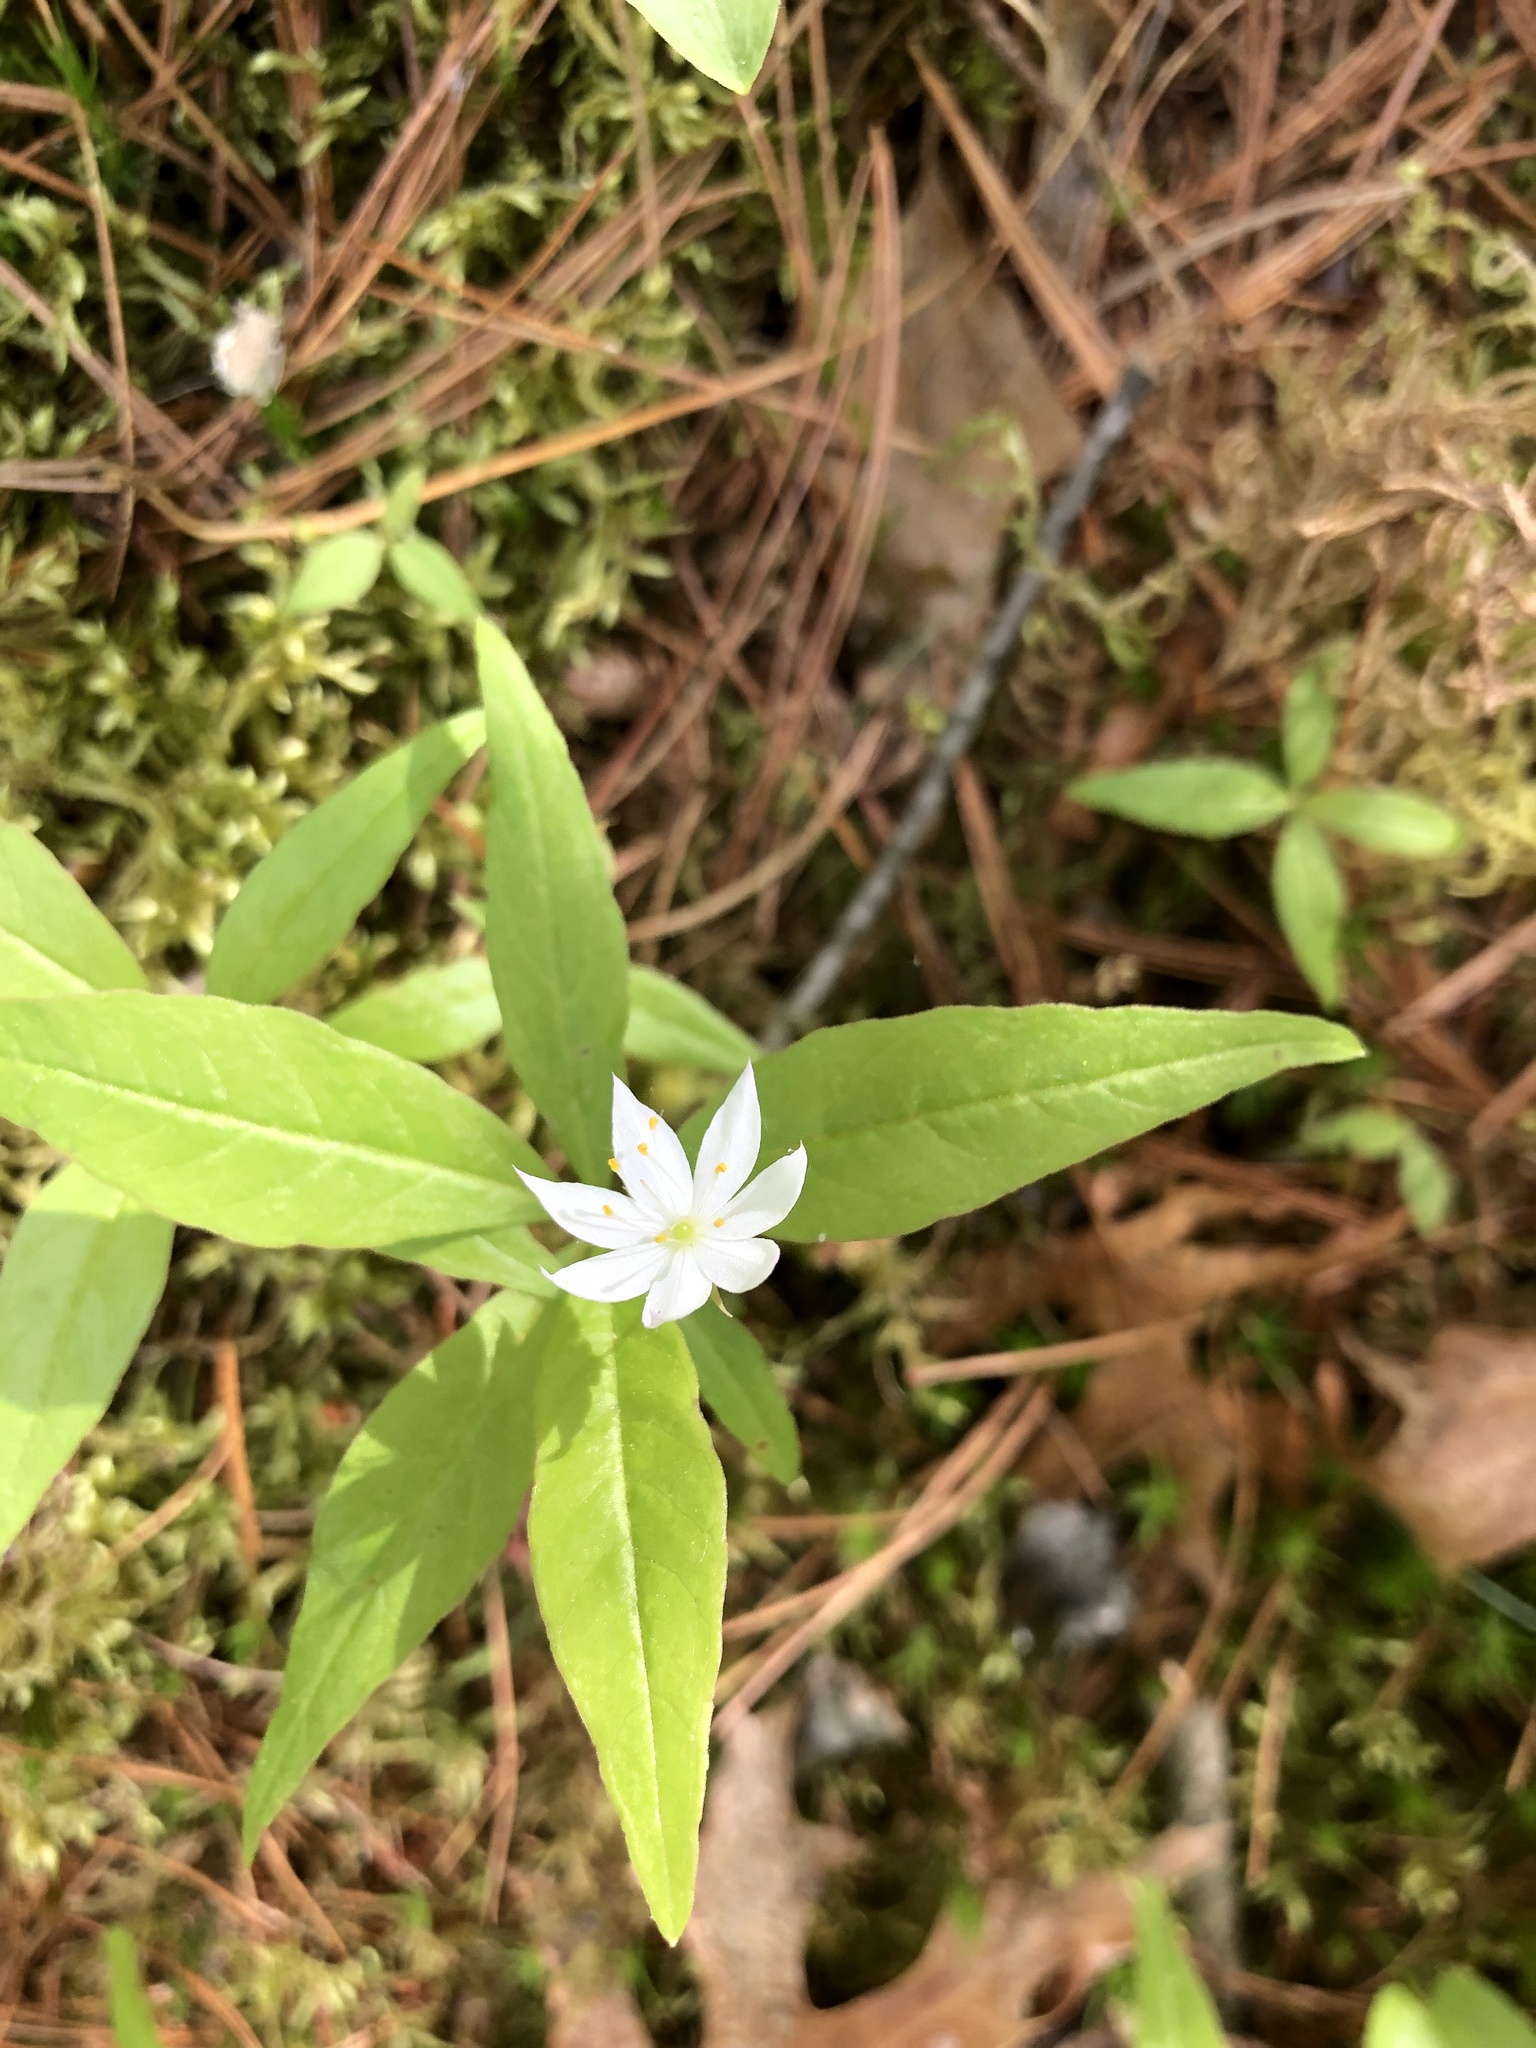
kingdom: Plantae
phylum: Tracheophyta
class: Magnoliopsida
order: Ericales
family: Primulaceae
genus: Lysimachia
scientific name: Lysimachia borealis
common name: American starflower
